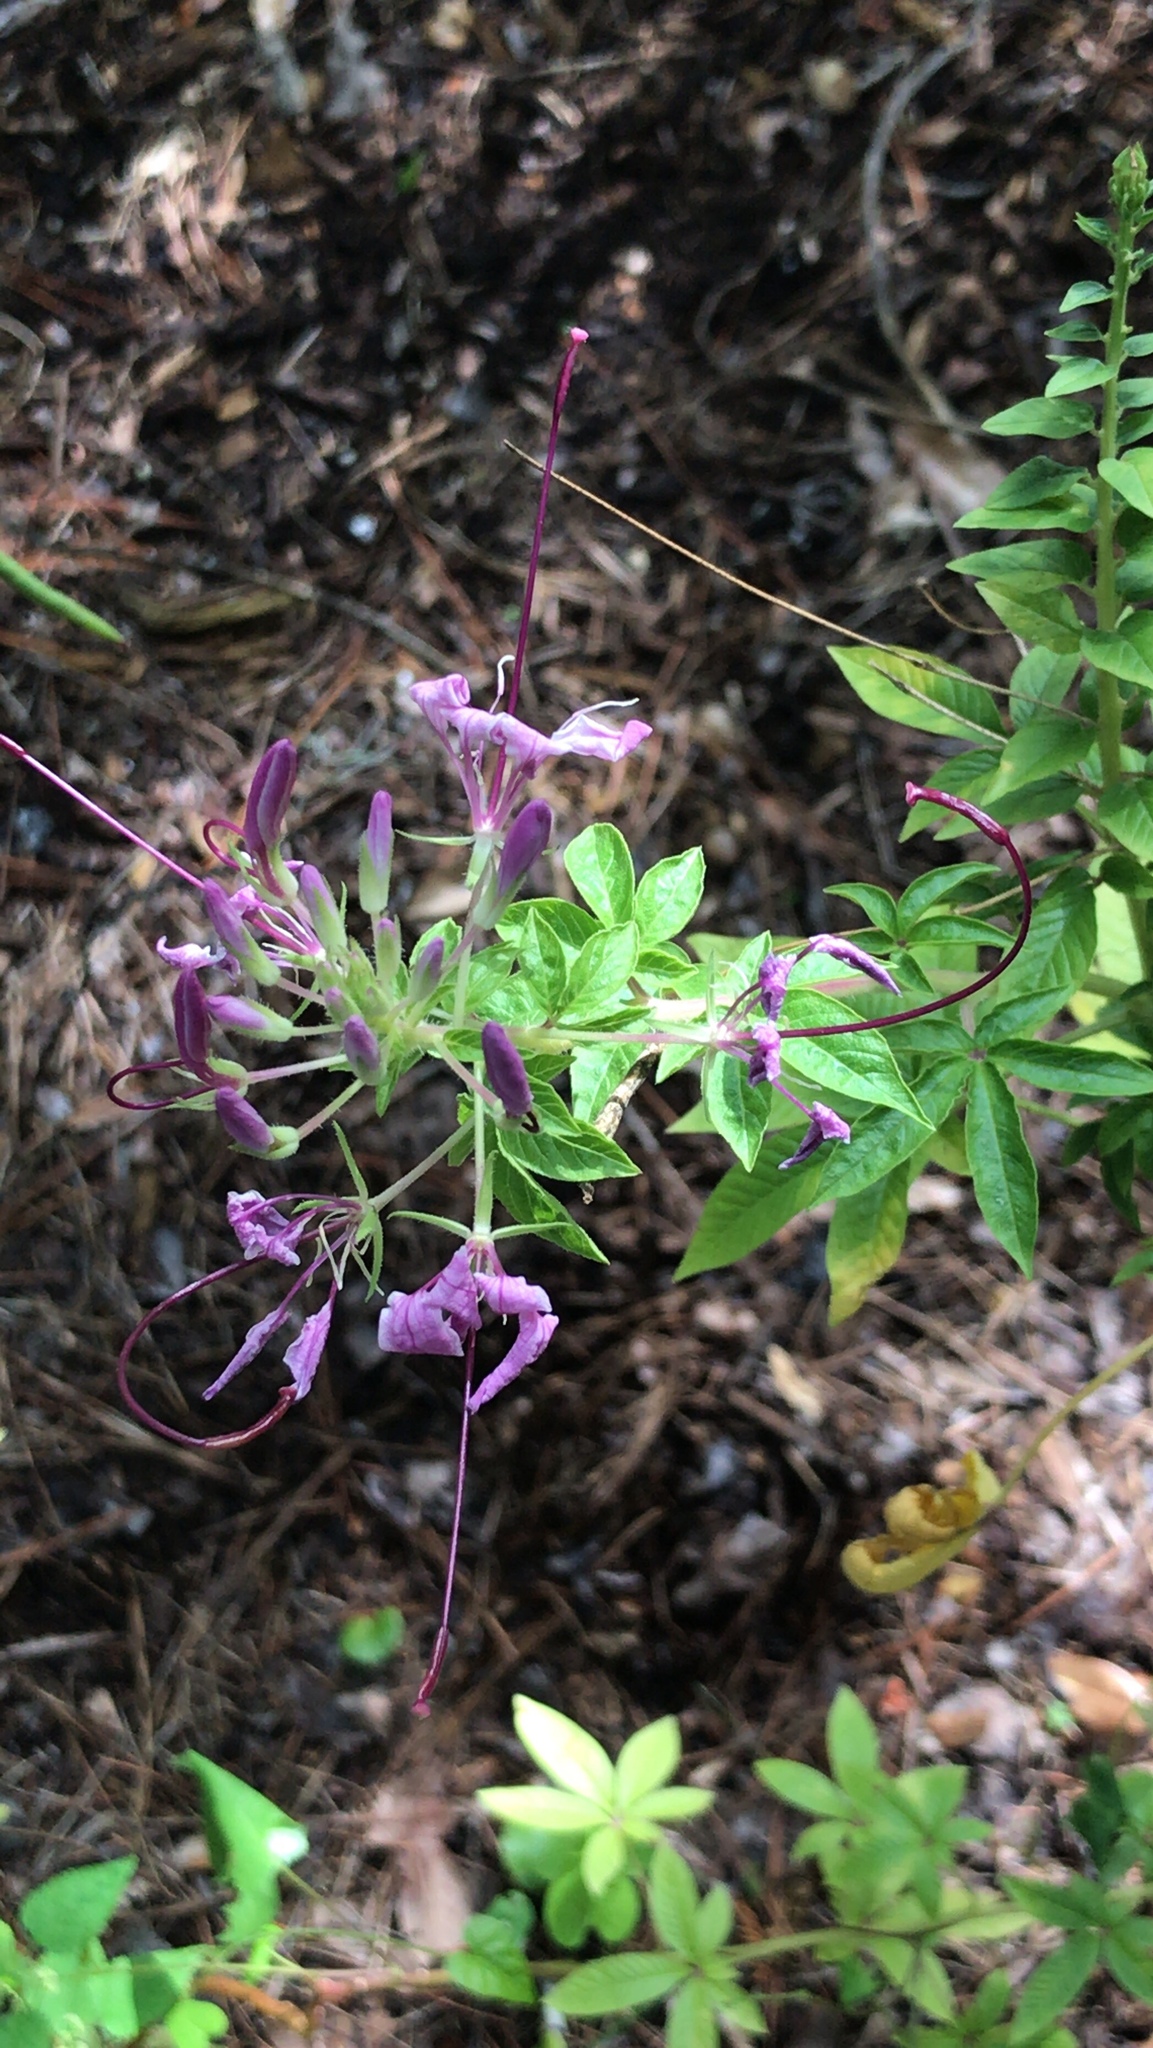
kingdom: Plantae
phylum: Tracheophyta
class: Magnoliopsida
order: Brassicales
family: Cleomaceae
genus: Tarenaya
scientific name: Tarenaya houtteana
